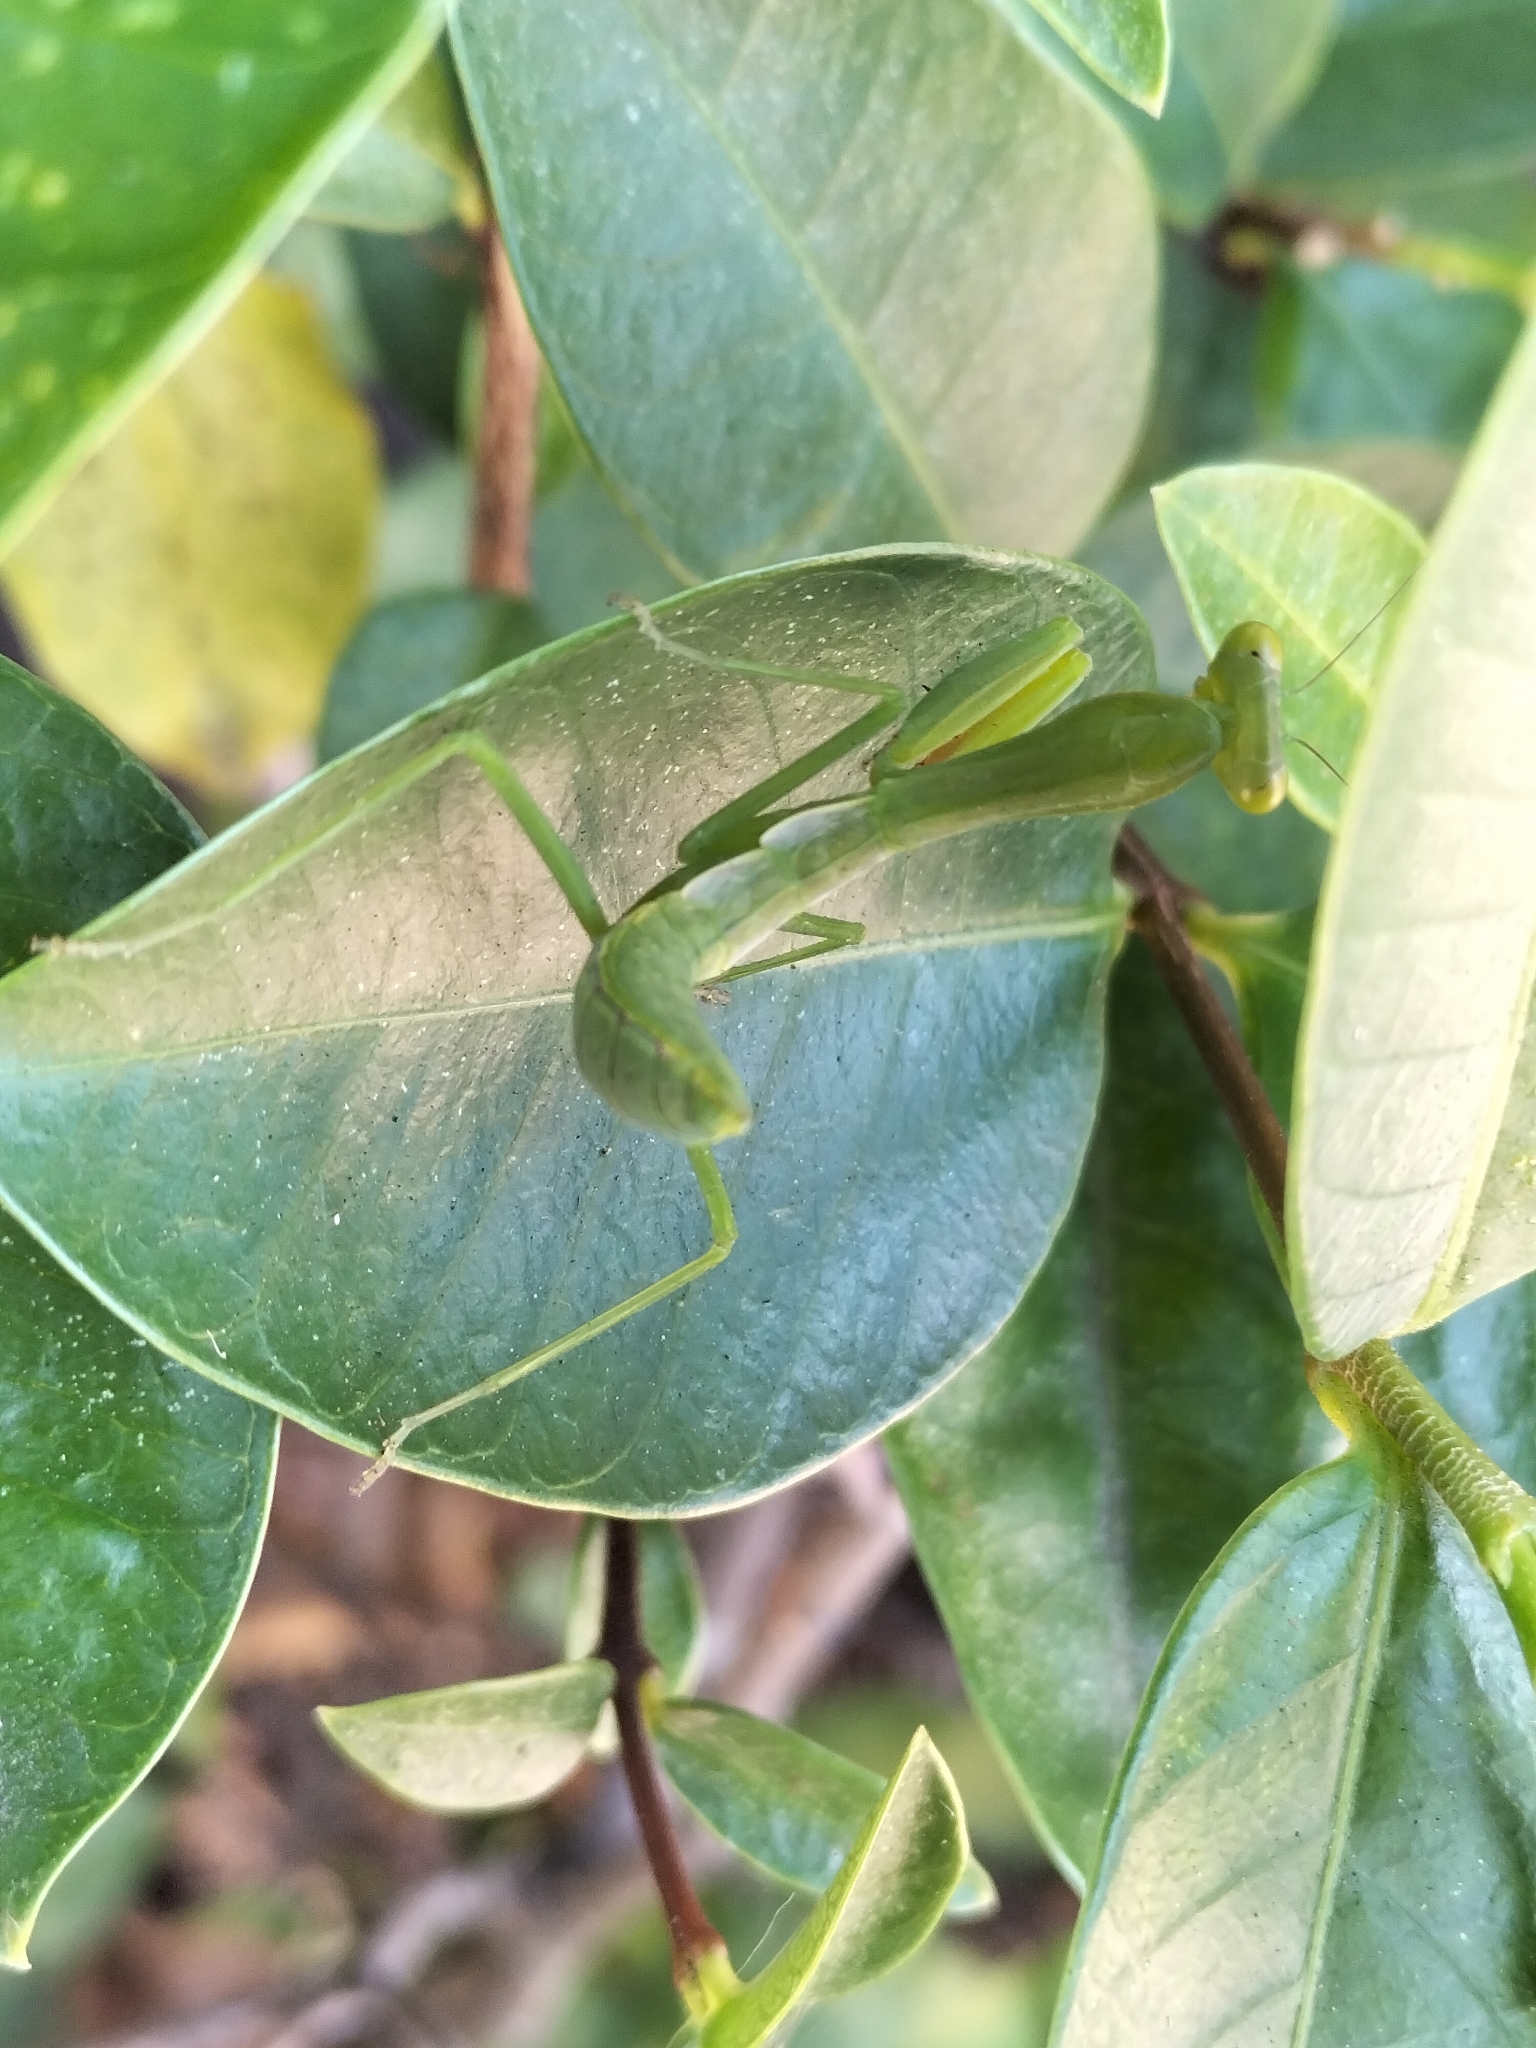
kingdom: Animalia
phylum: Arthropoda
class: Insecta
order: Mantodea
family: Mantidae
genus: Hierodula
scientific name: Hierodula majuscula
